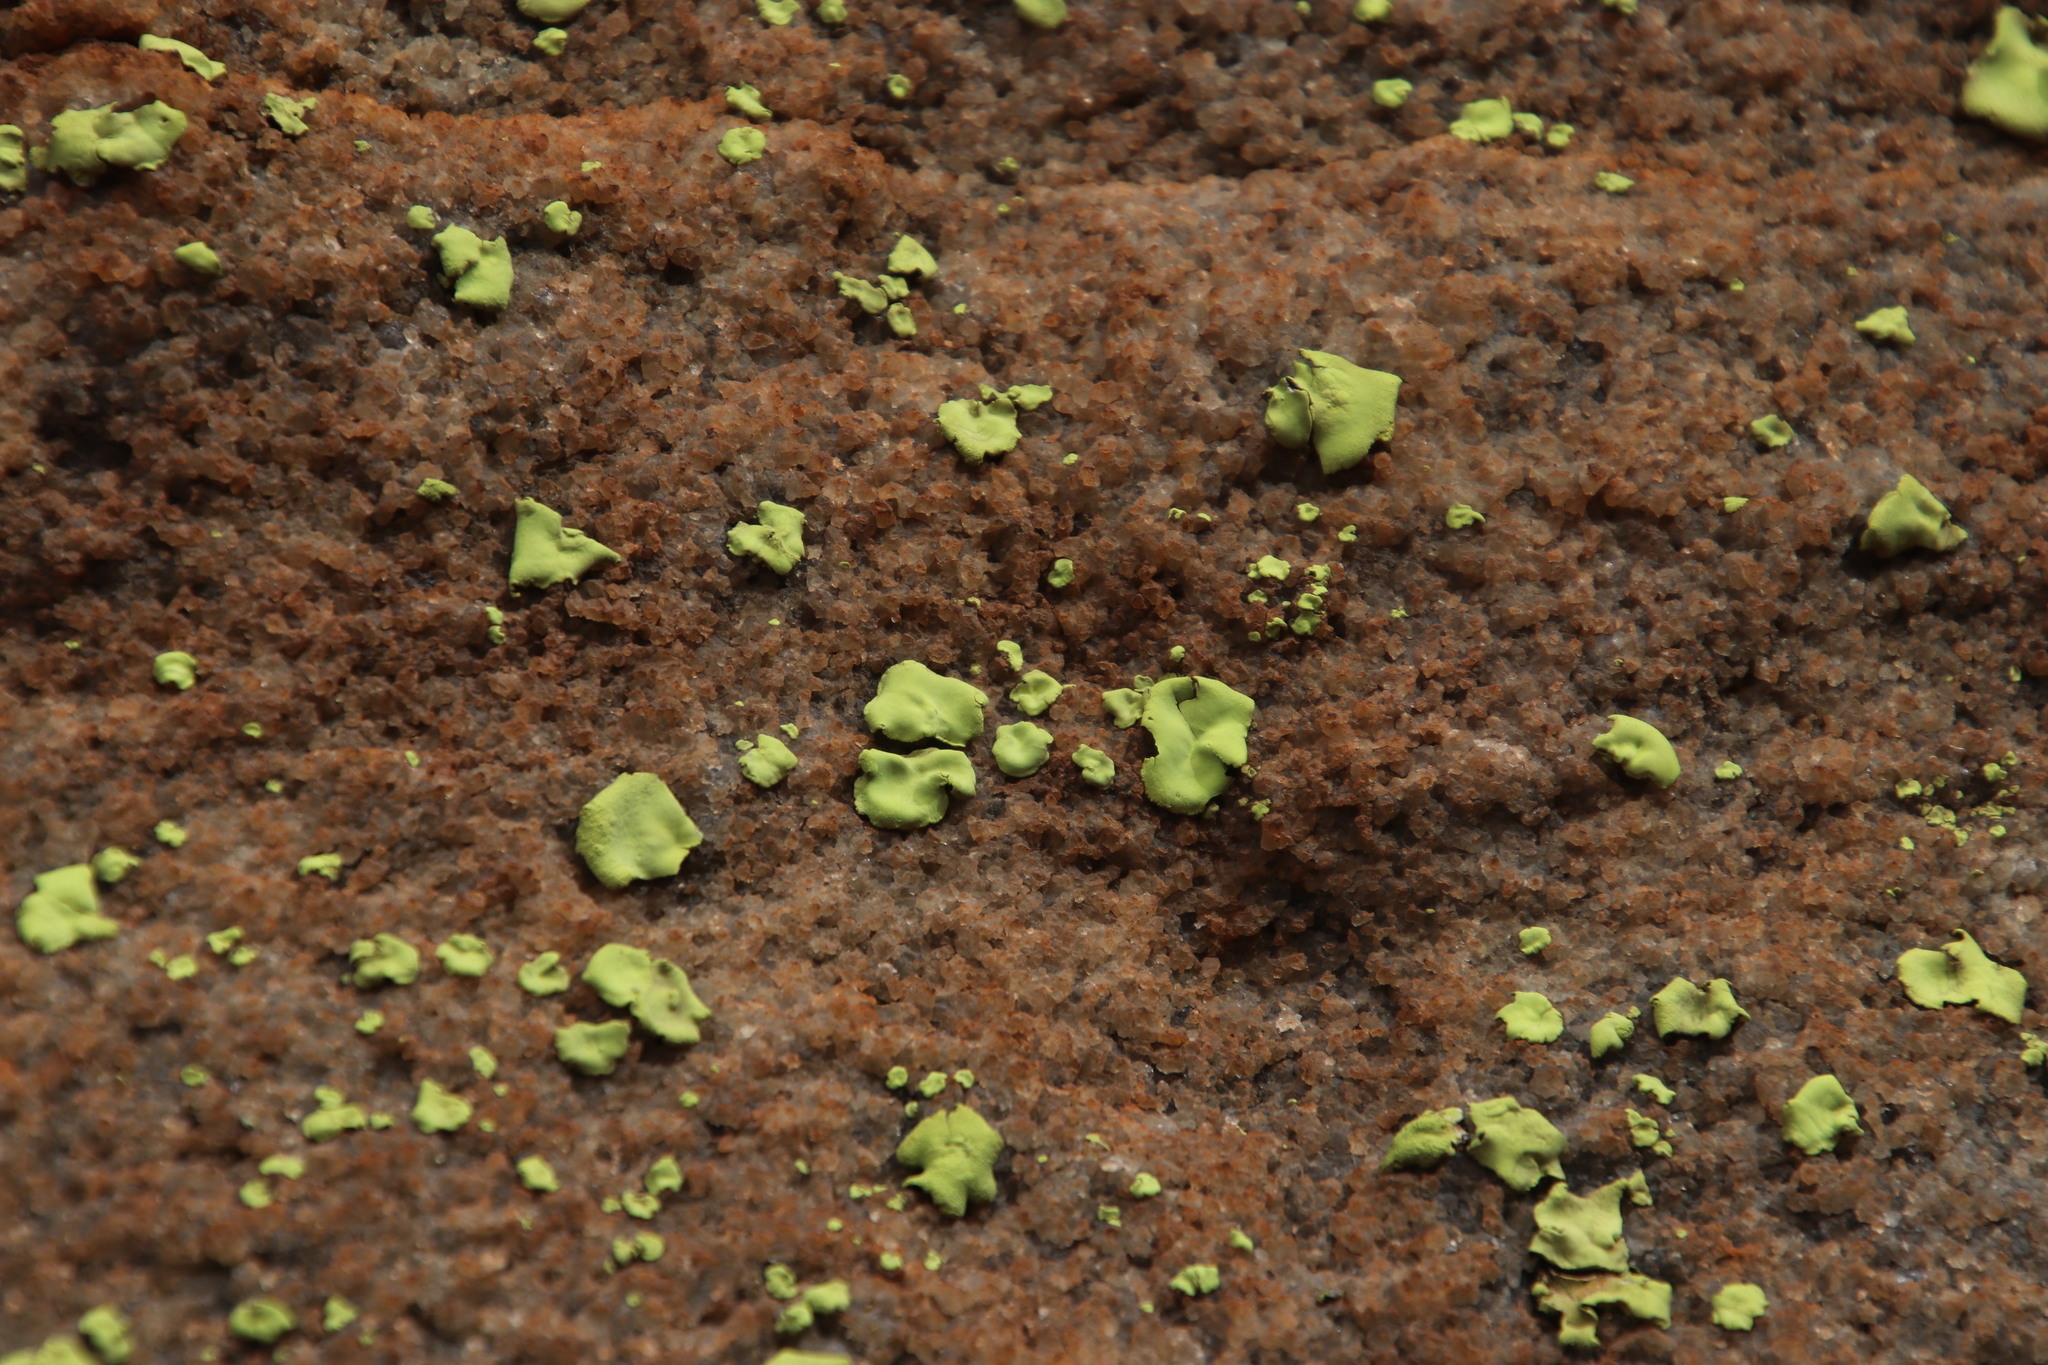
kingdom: Fungi
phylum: Ascomycota
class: Lecanoromycetes
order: Caliciales
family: Caliciaceae
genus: Dermatiscum
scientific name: Dermatiscum thunbergii
